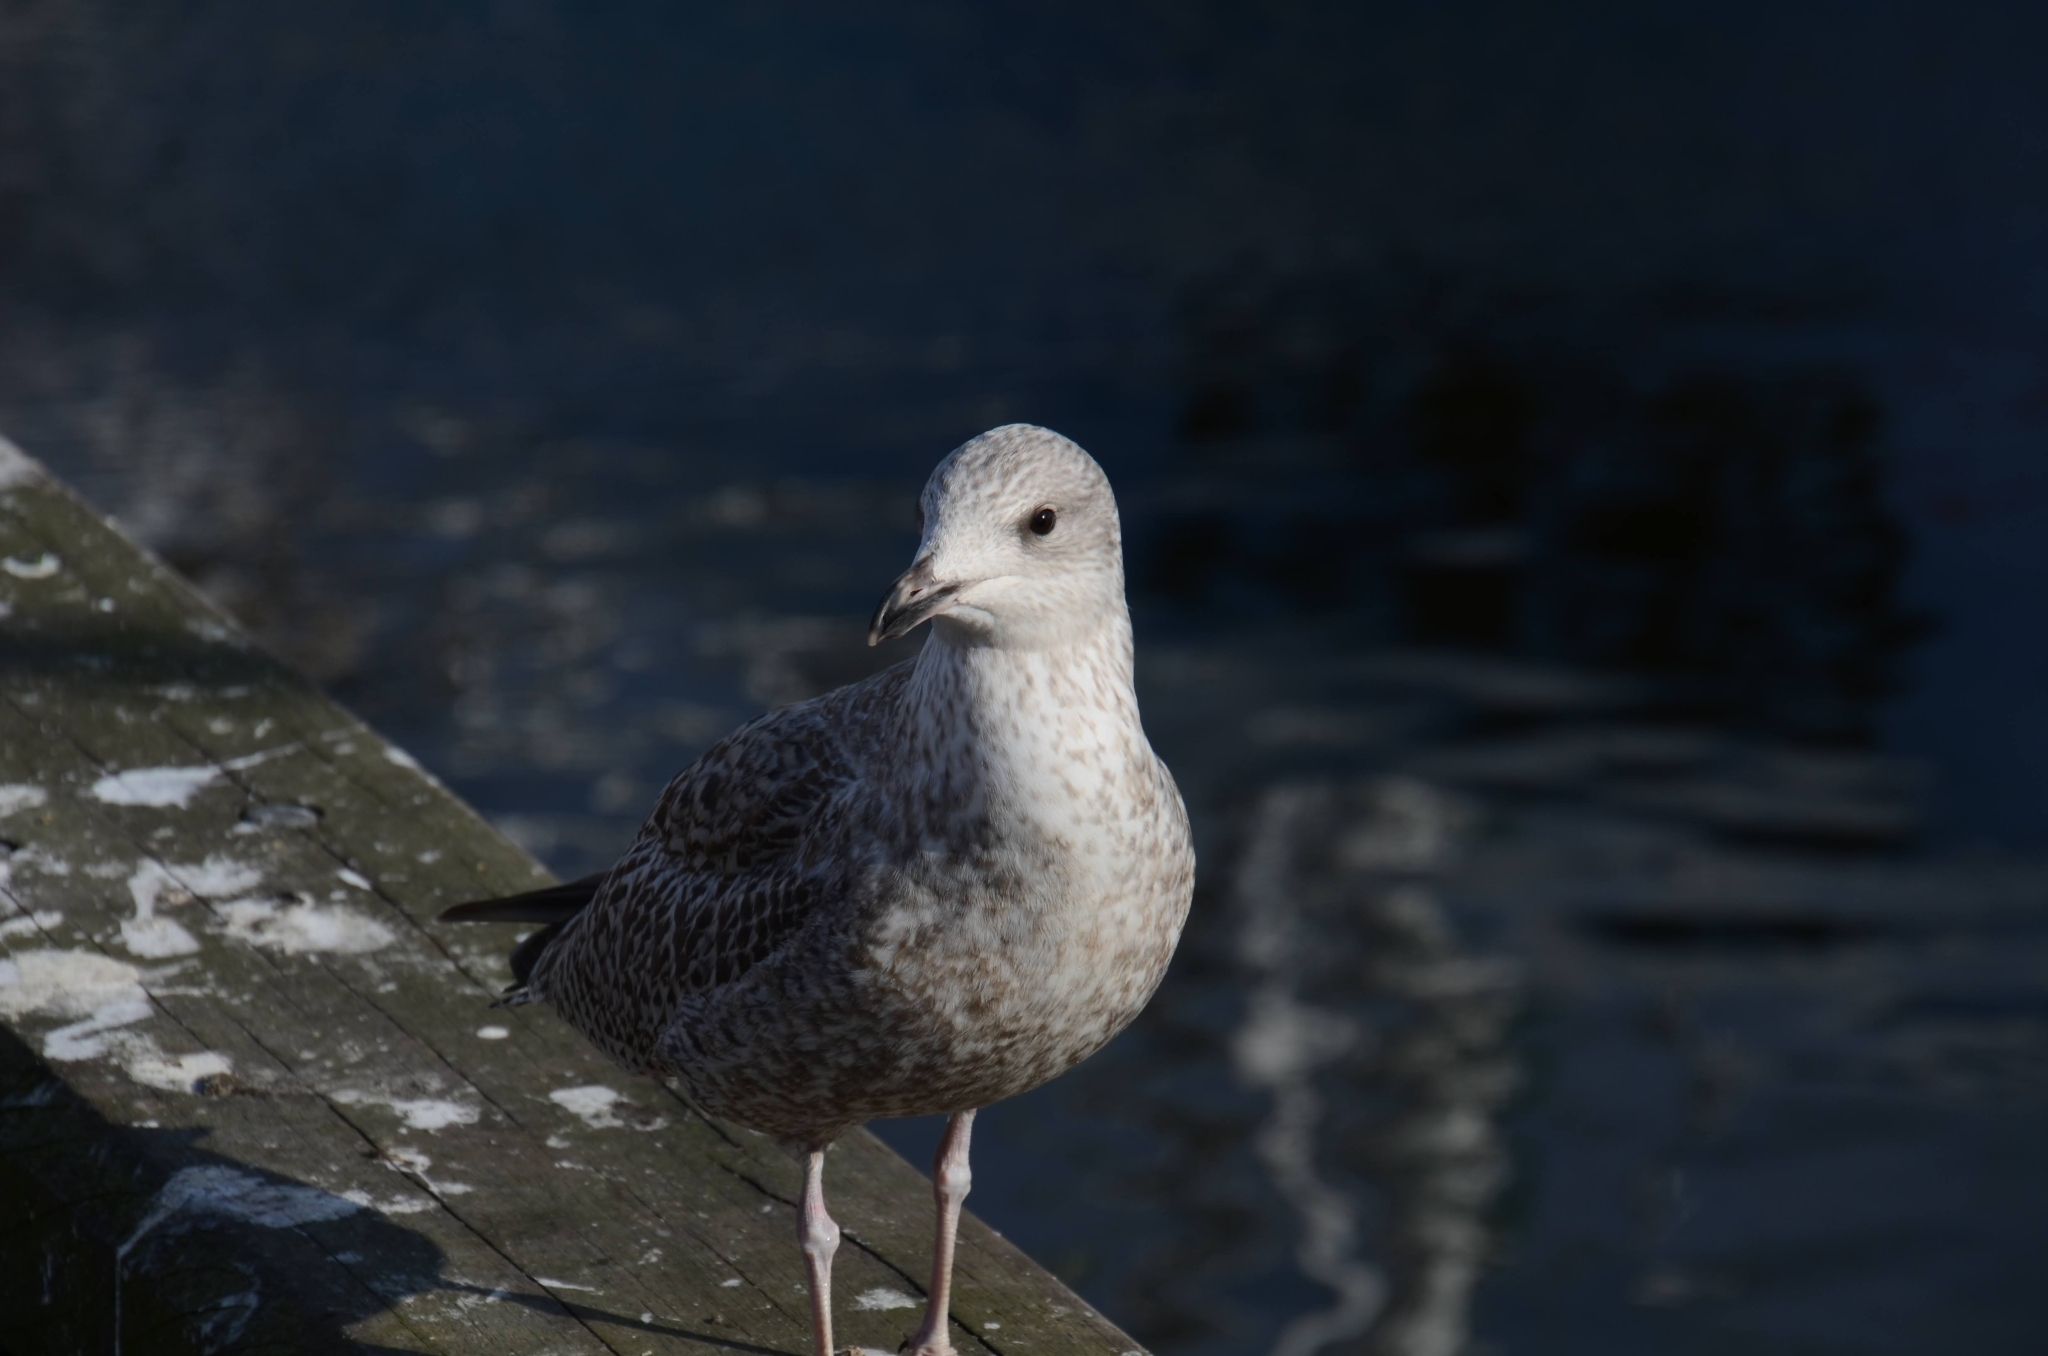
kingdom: Animalia
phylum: Chordata
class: Aves
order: Charadriiformes
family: Laridae
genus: Larus
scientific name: Larus argentatus
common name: Herring gull
